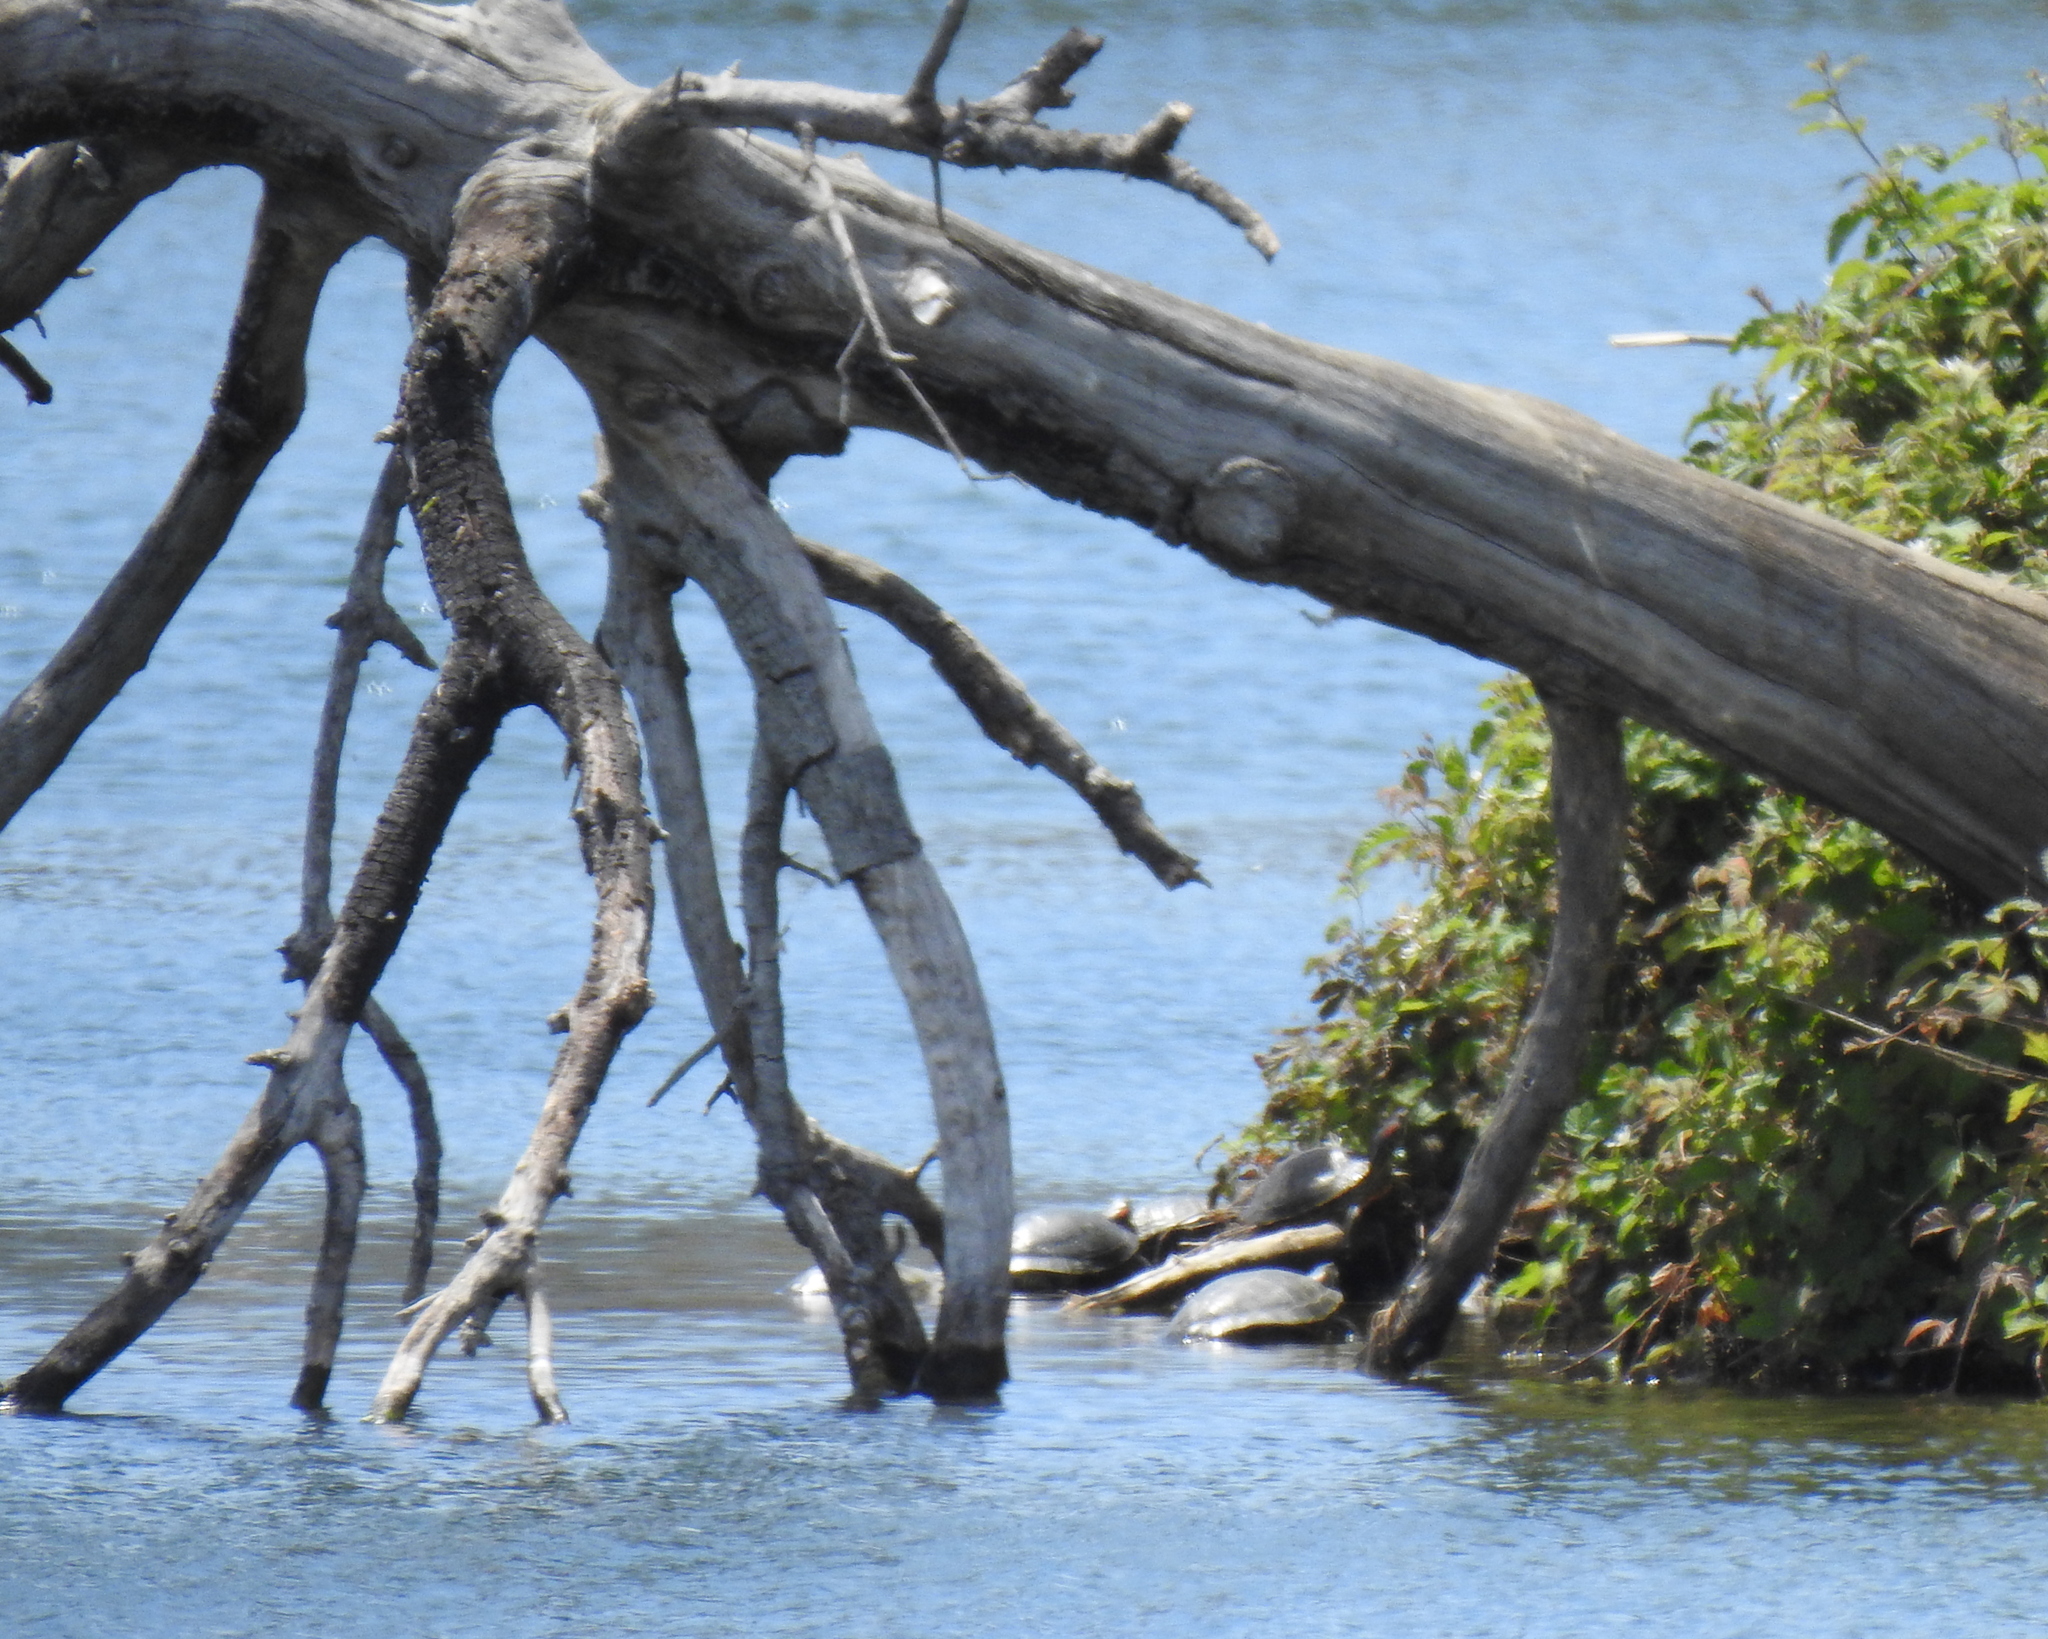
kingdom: Animalia
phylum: Chordata
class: Testudines
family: Emydidae
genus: Trachemys
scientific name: Trachemys scripta
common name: Slider
